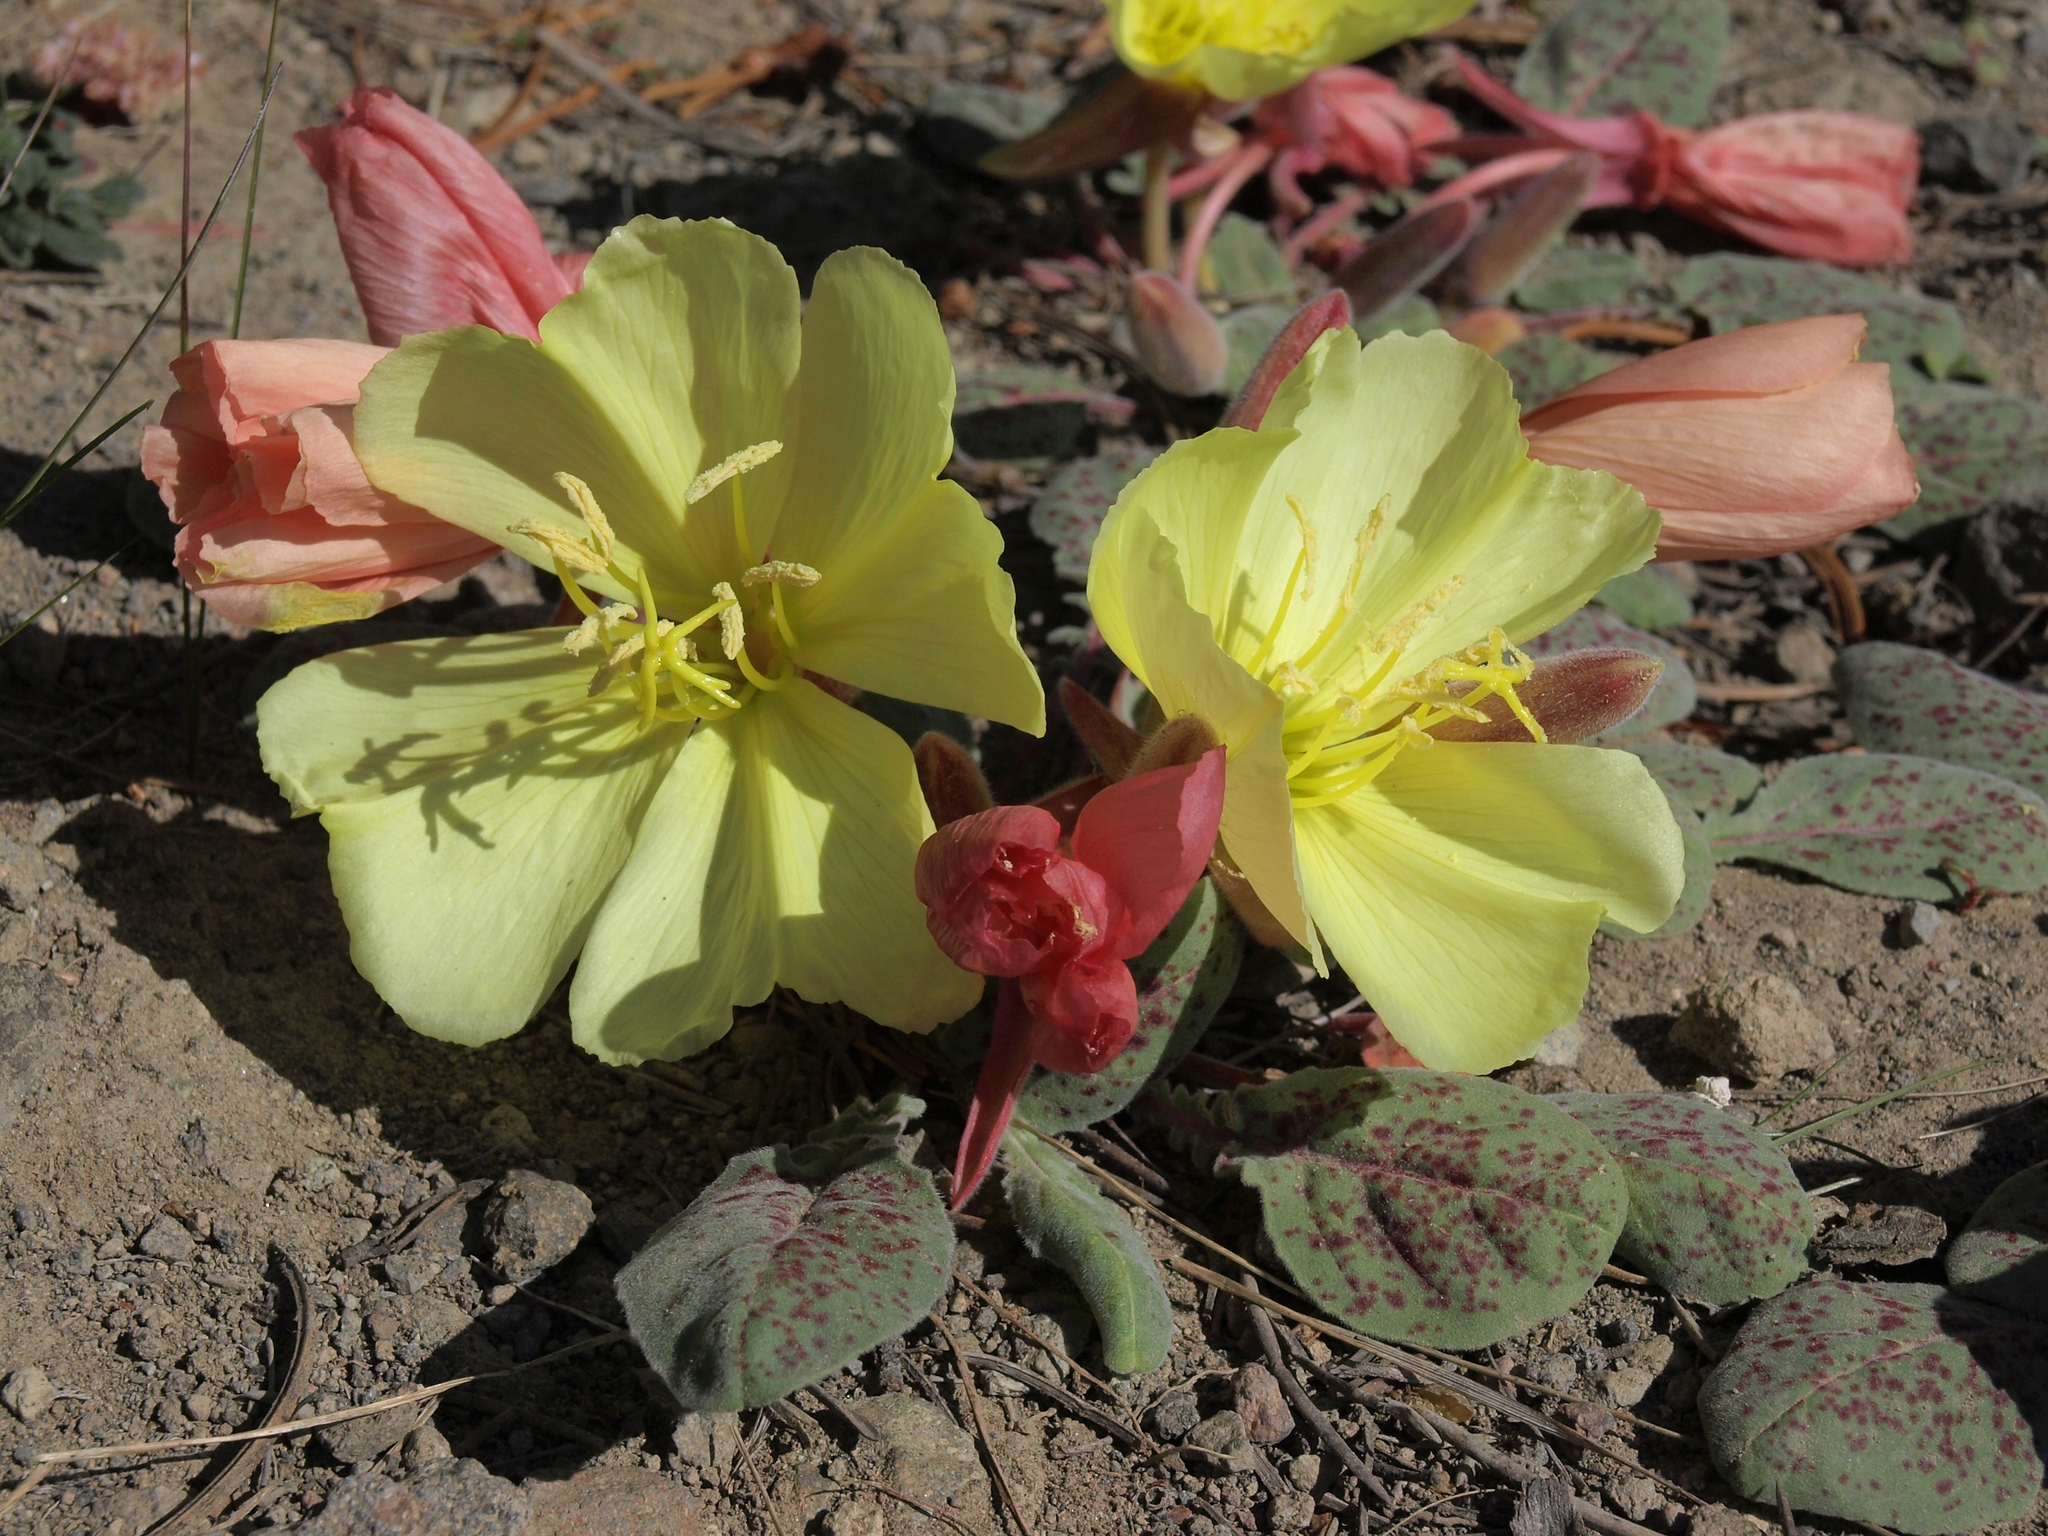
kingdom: Plantae
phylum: Tracheophyta
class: Magnoliopsida
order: Myrtales
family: Onagraceae
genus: Oenothera
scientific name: Oenothera xylocarpa
